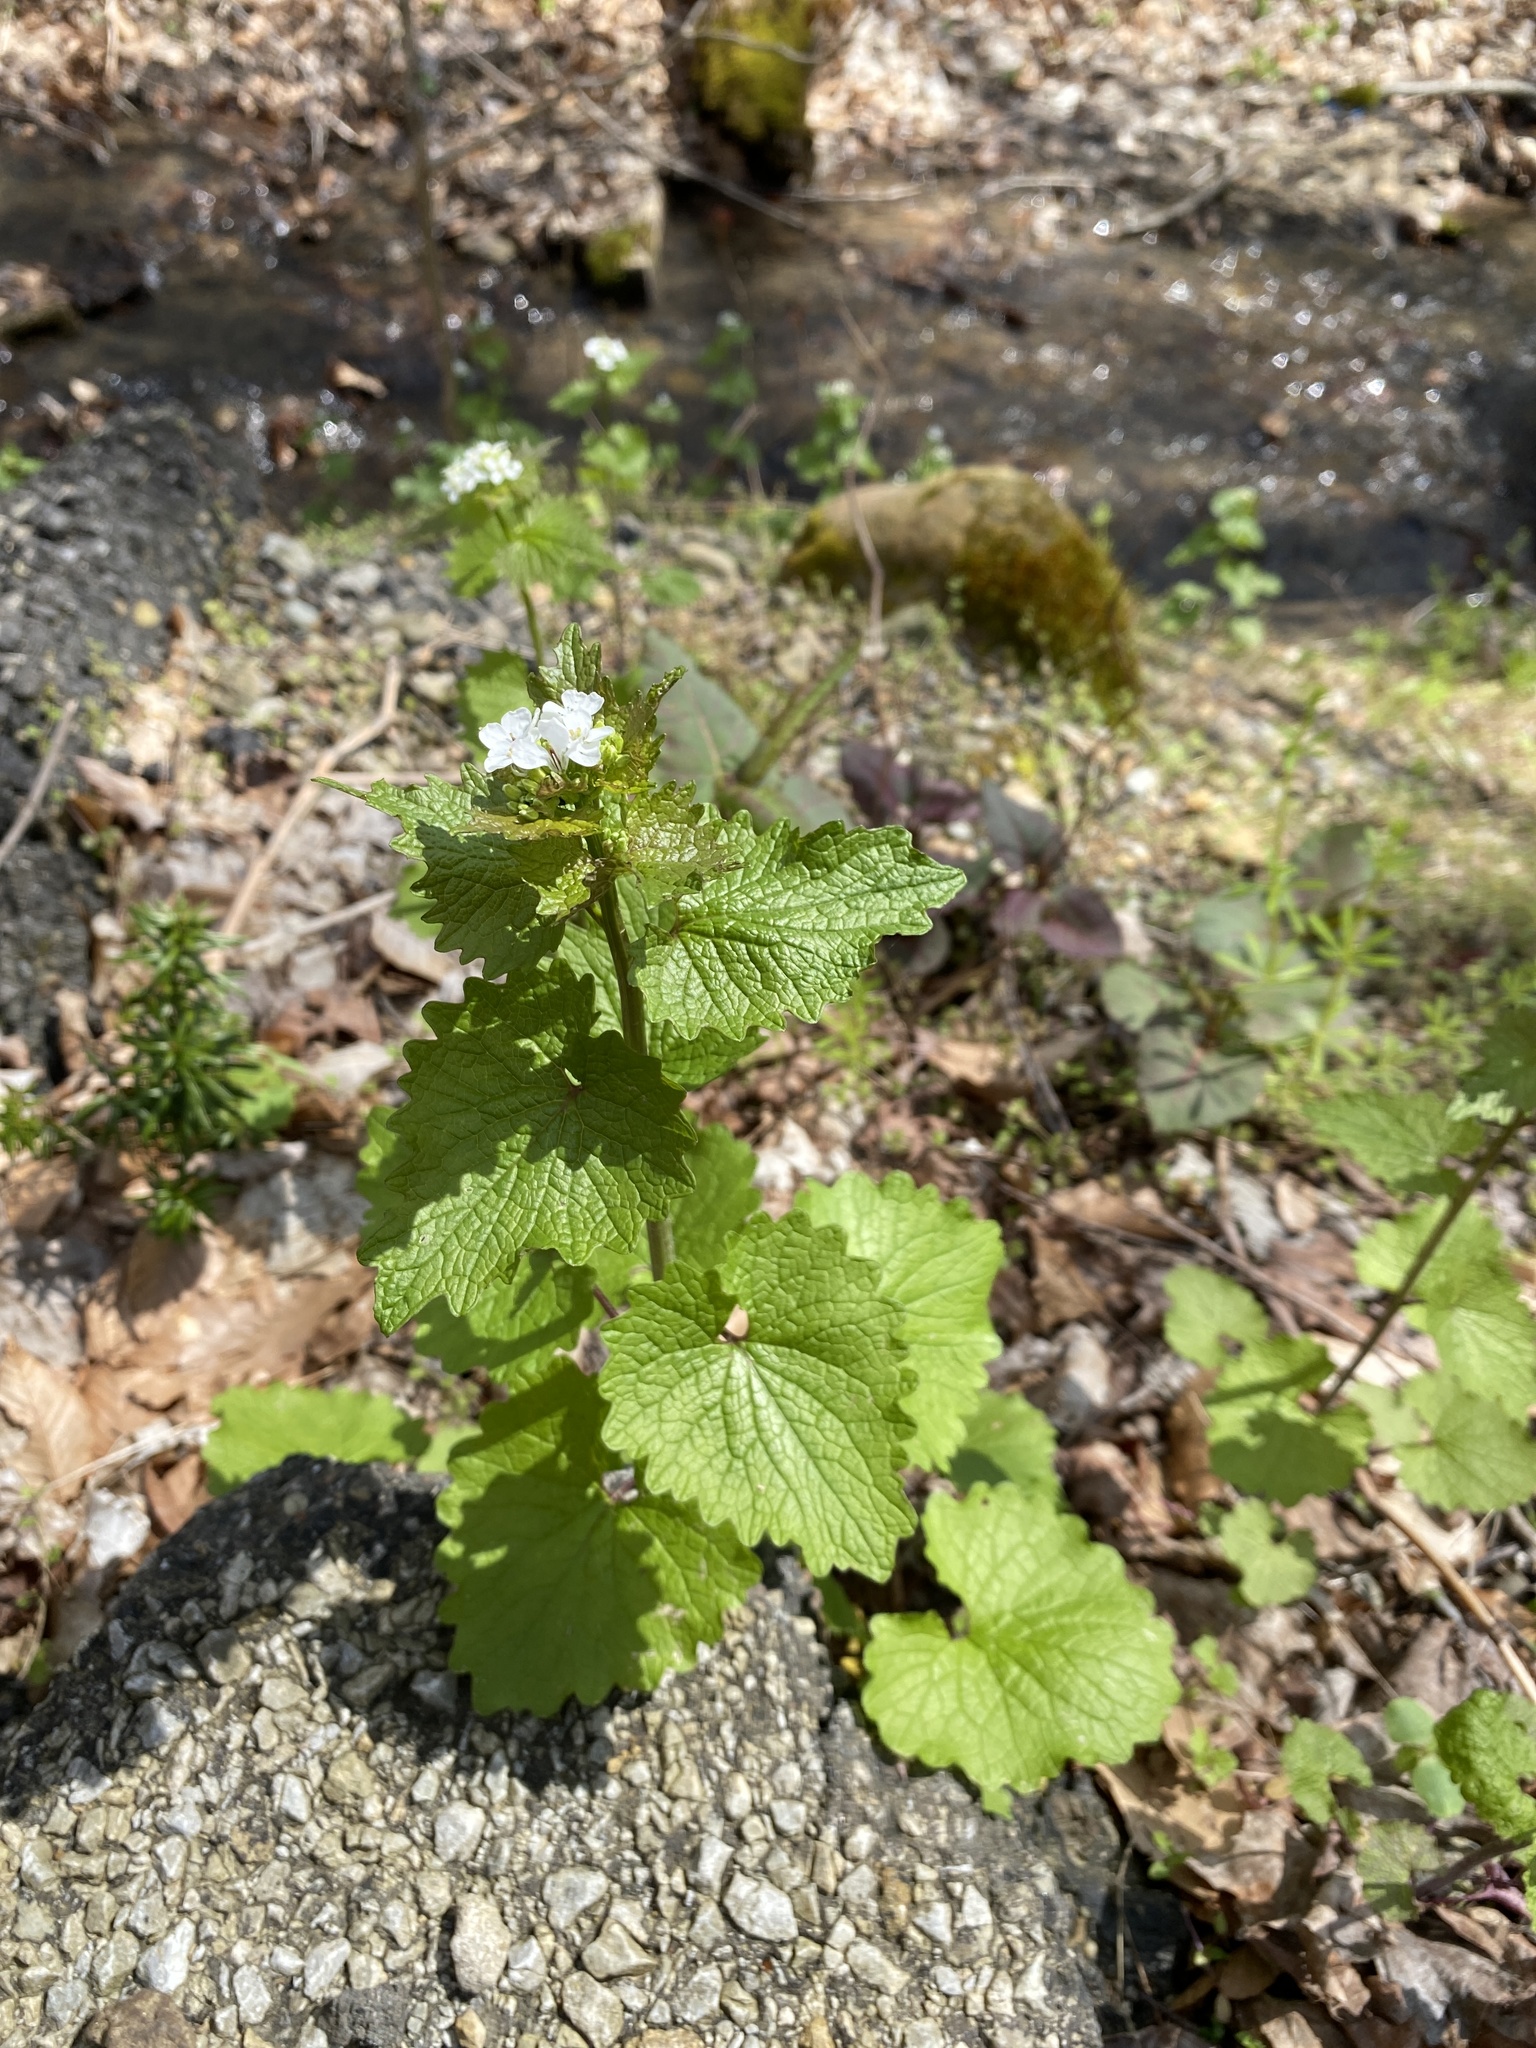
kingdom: Plantae
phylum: Tracheophyta
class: Magnoliopsida
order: Brassicales
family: Brassicaceae
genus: Alliaria
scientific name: Alliaria petiolata
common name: Garlic mustard
